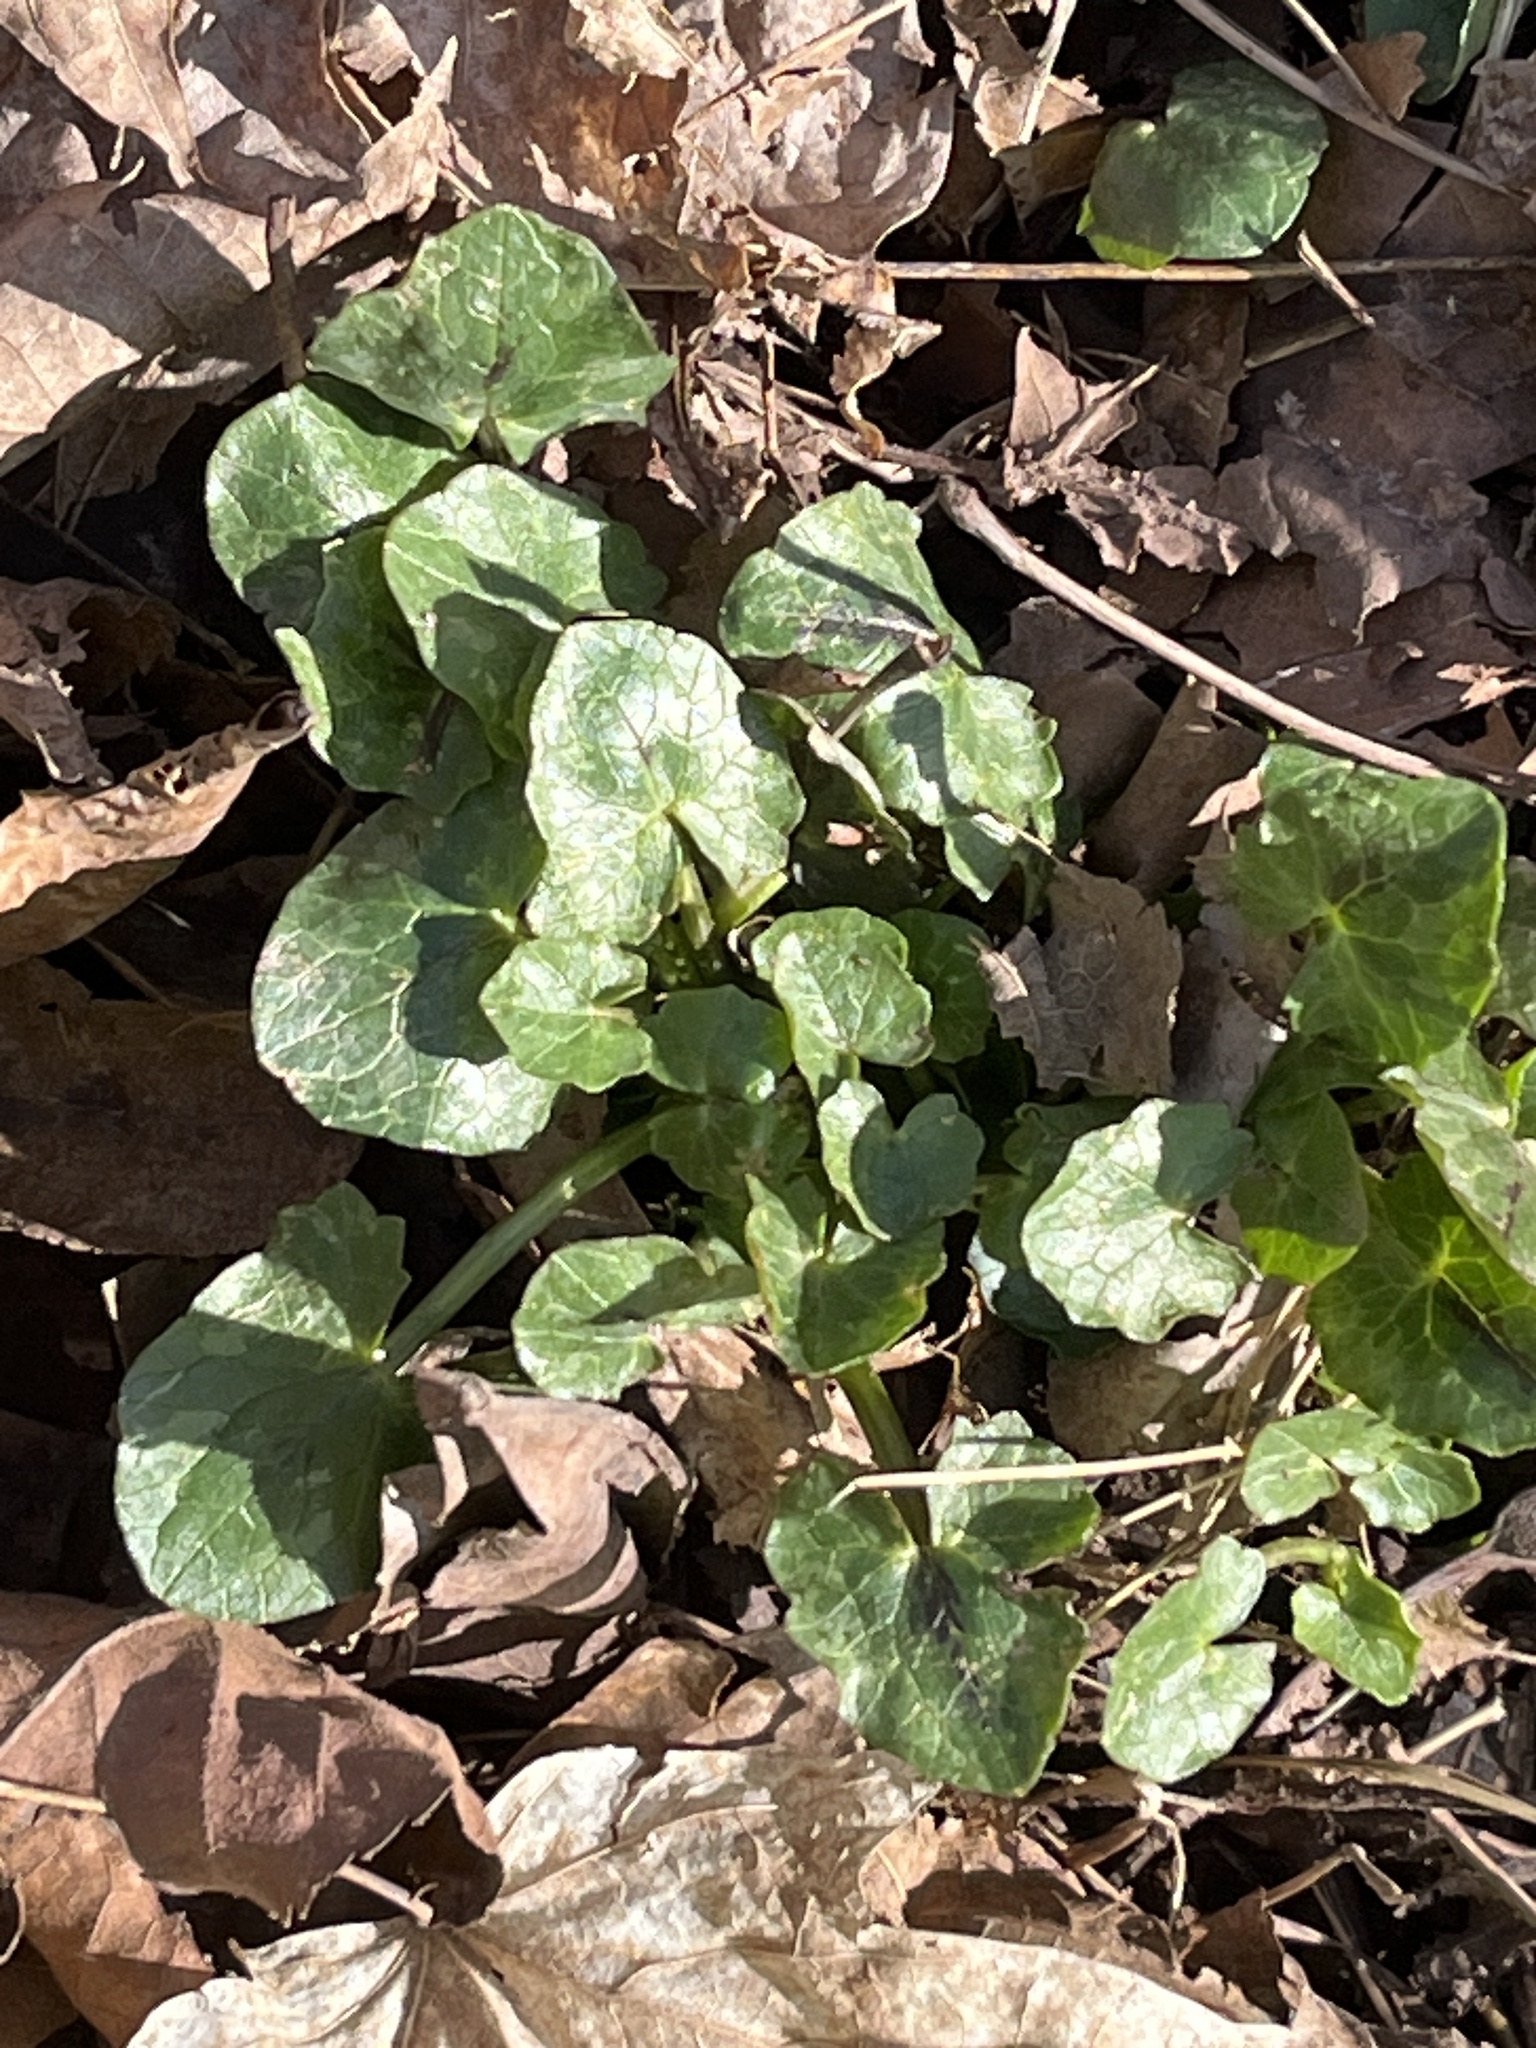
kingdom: Plantae
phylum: Tracheophyta
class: Magnoliopsida
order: Ranunculales
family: Ranunculaceae
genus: Ficaria
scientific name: Ficaria verna
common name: Lesser celandine
